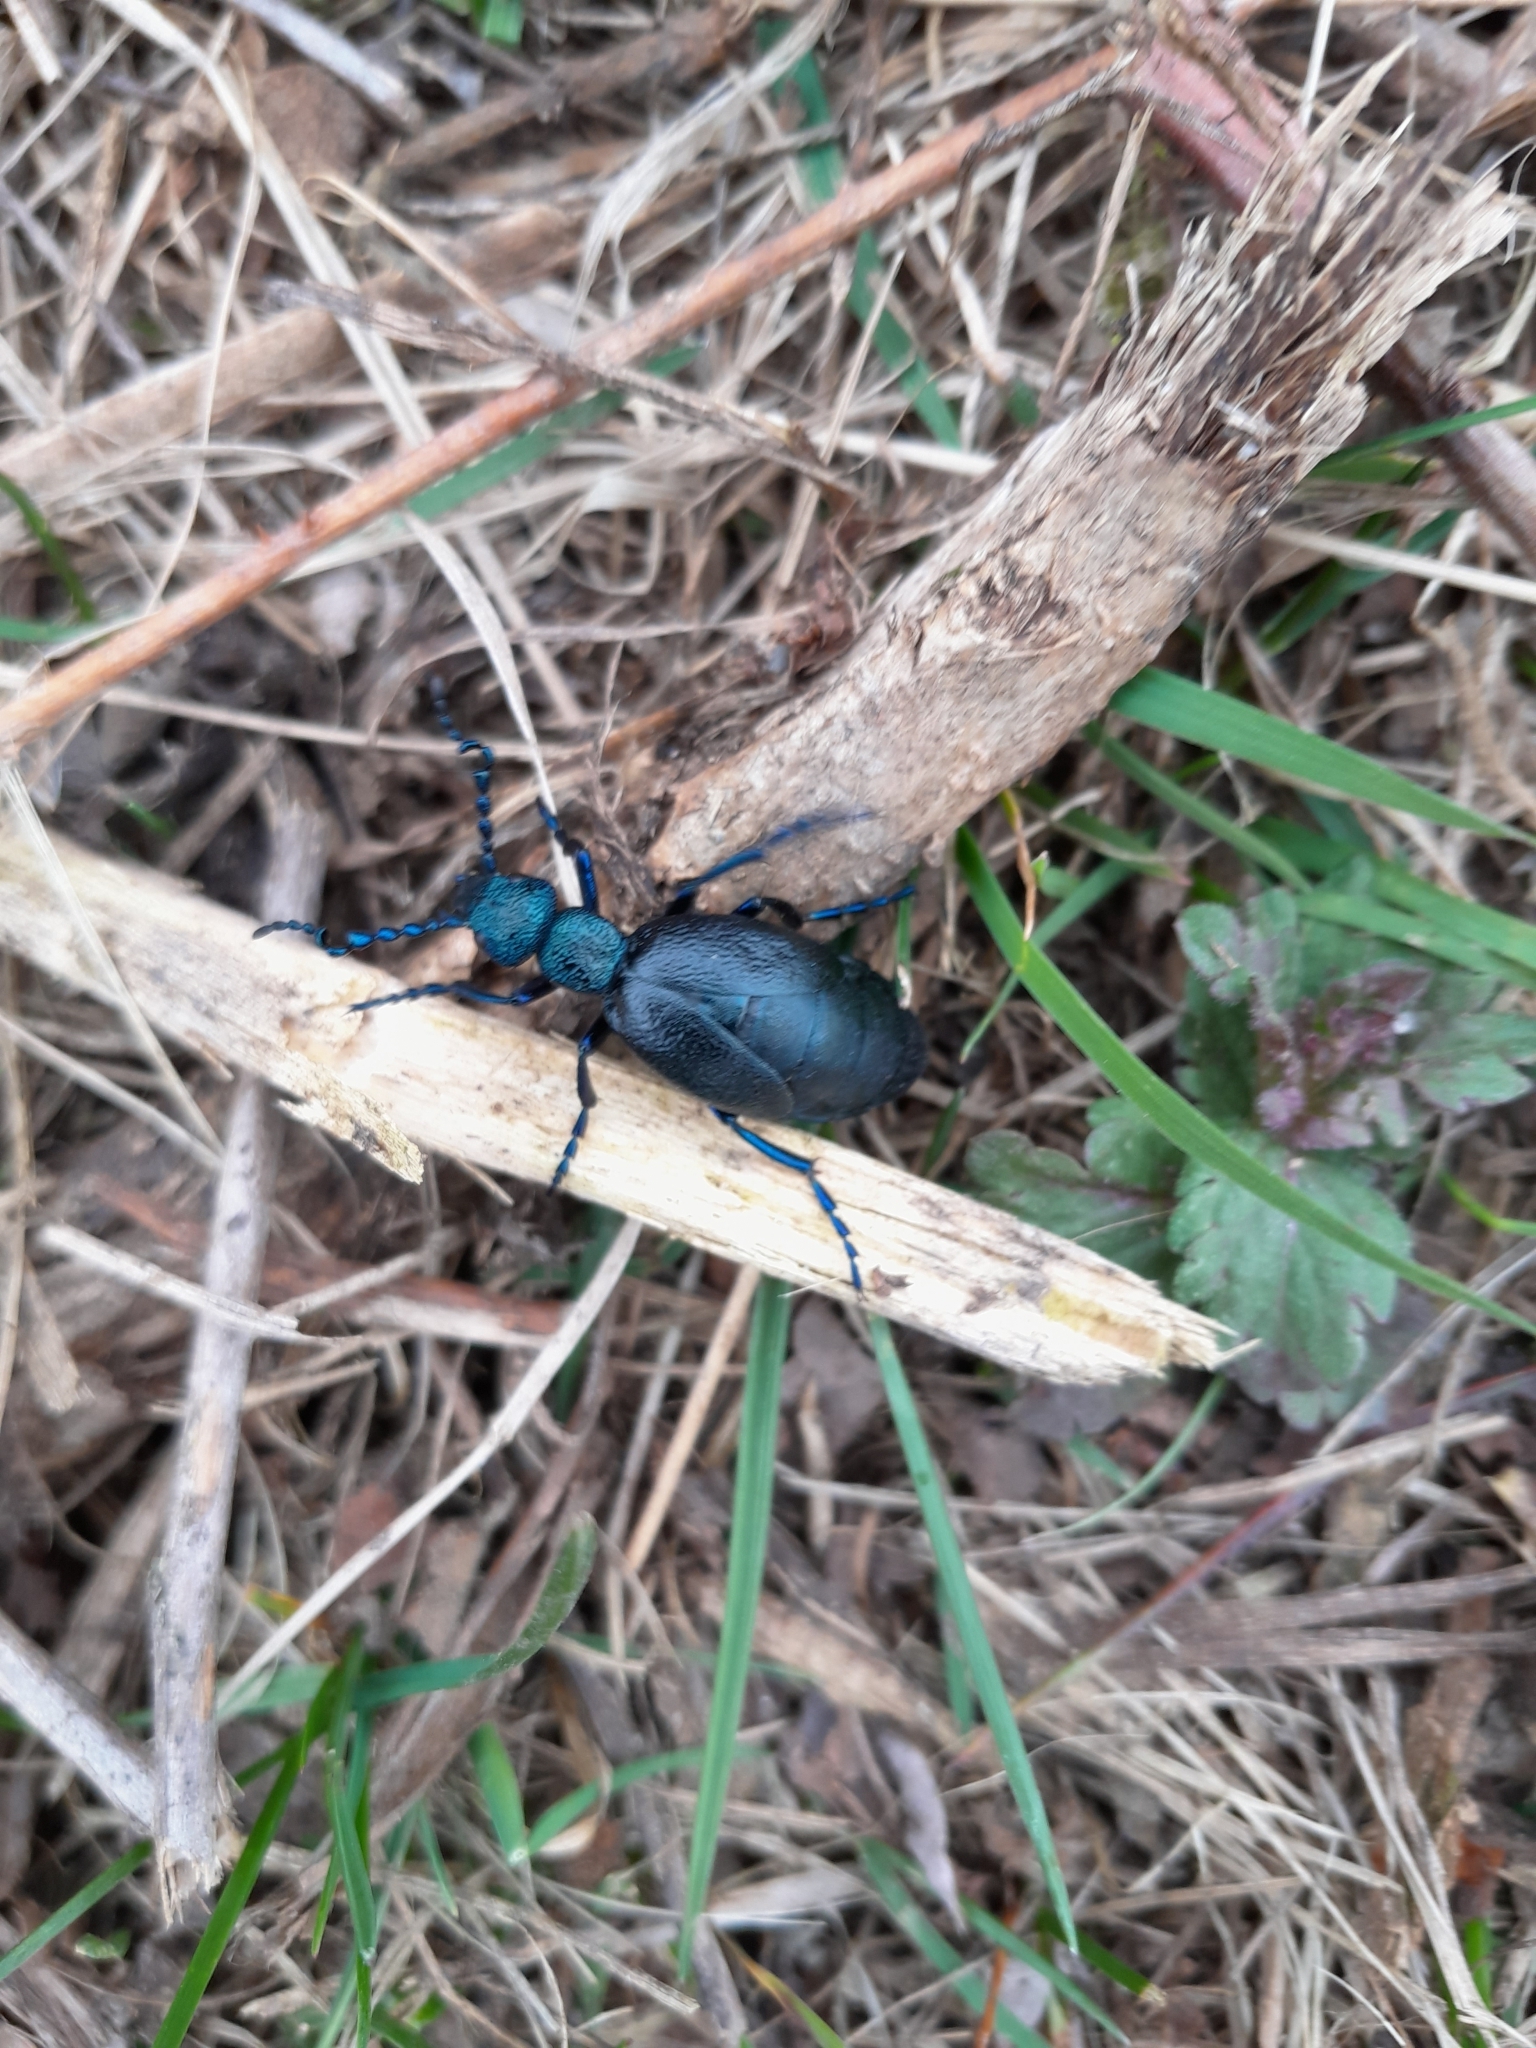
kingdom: Animalia
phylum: Arthropoda
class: Insecta
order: Coleoptera
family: Meloidae
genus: Meloe
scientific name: Meloe proscarabaeus
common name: Black oil-beetle
